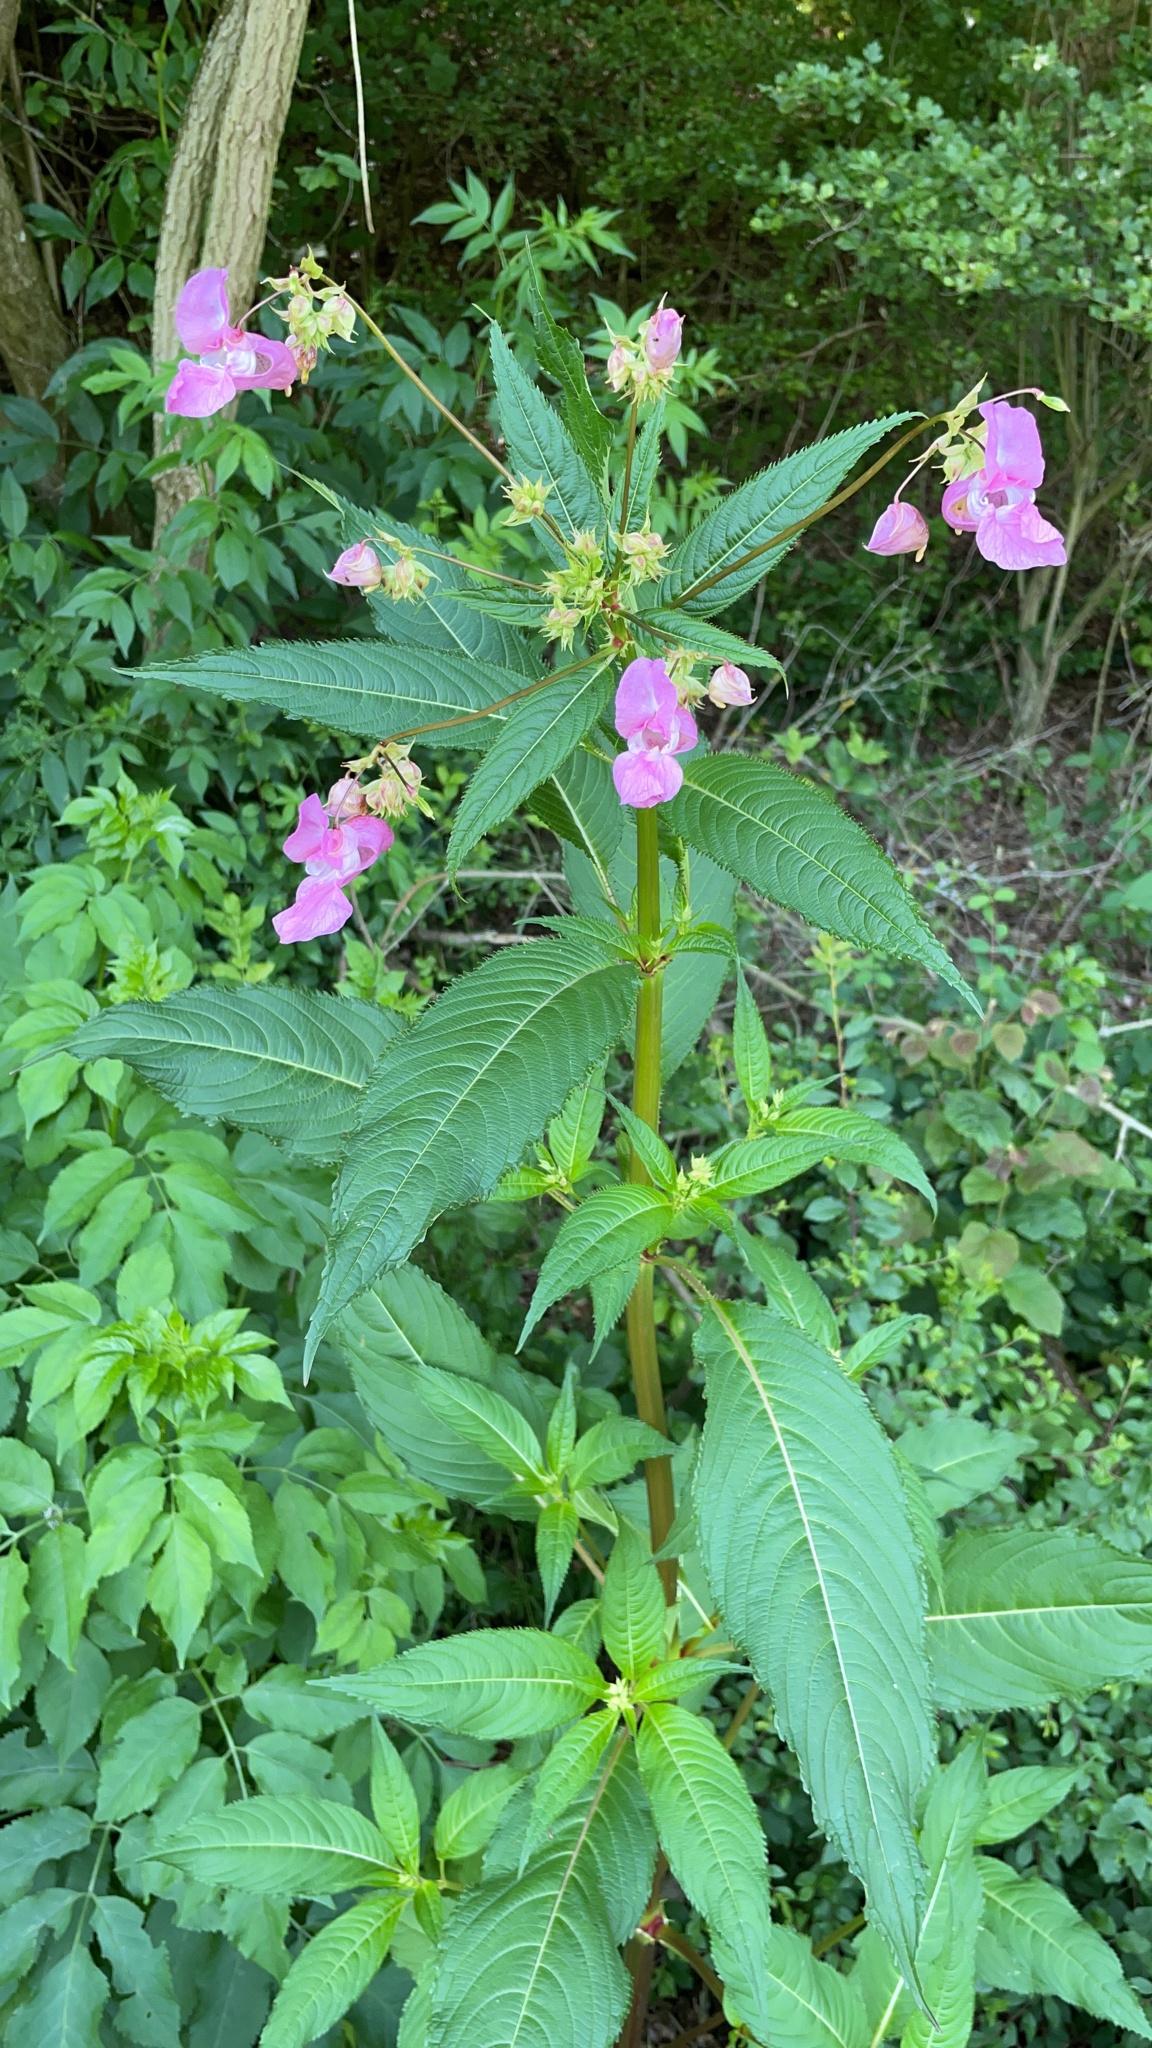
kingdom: Plantae
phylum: Tracheophyta
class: Magnoliopsida
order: Ericales
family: Balsaminaceae
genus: Impatiens
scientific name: Impatiens glandulifera
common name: Himalayan balsam
